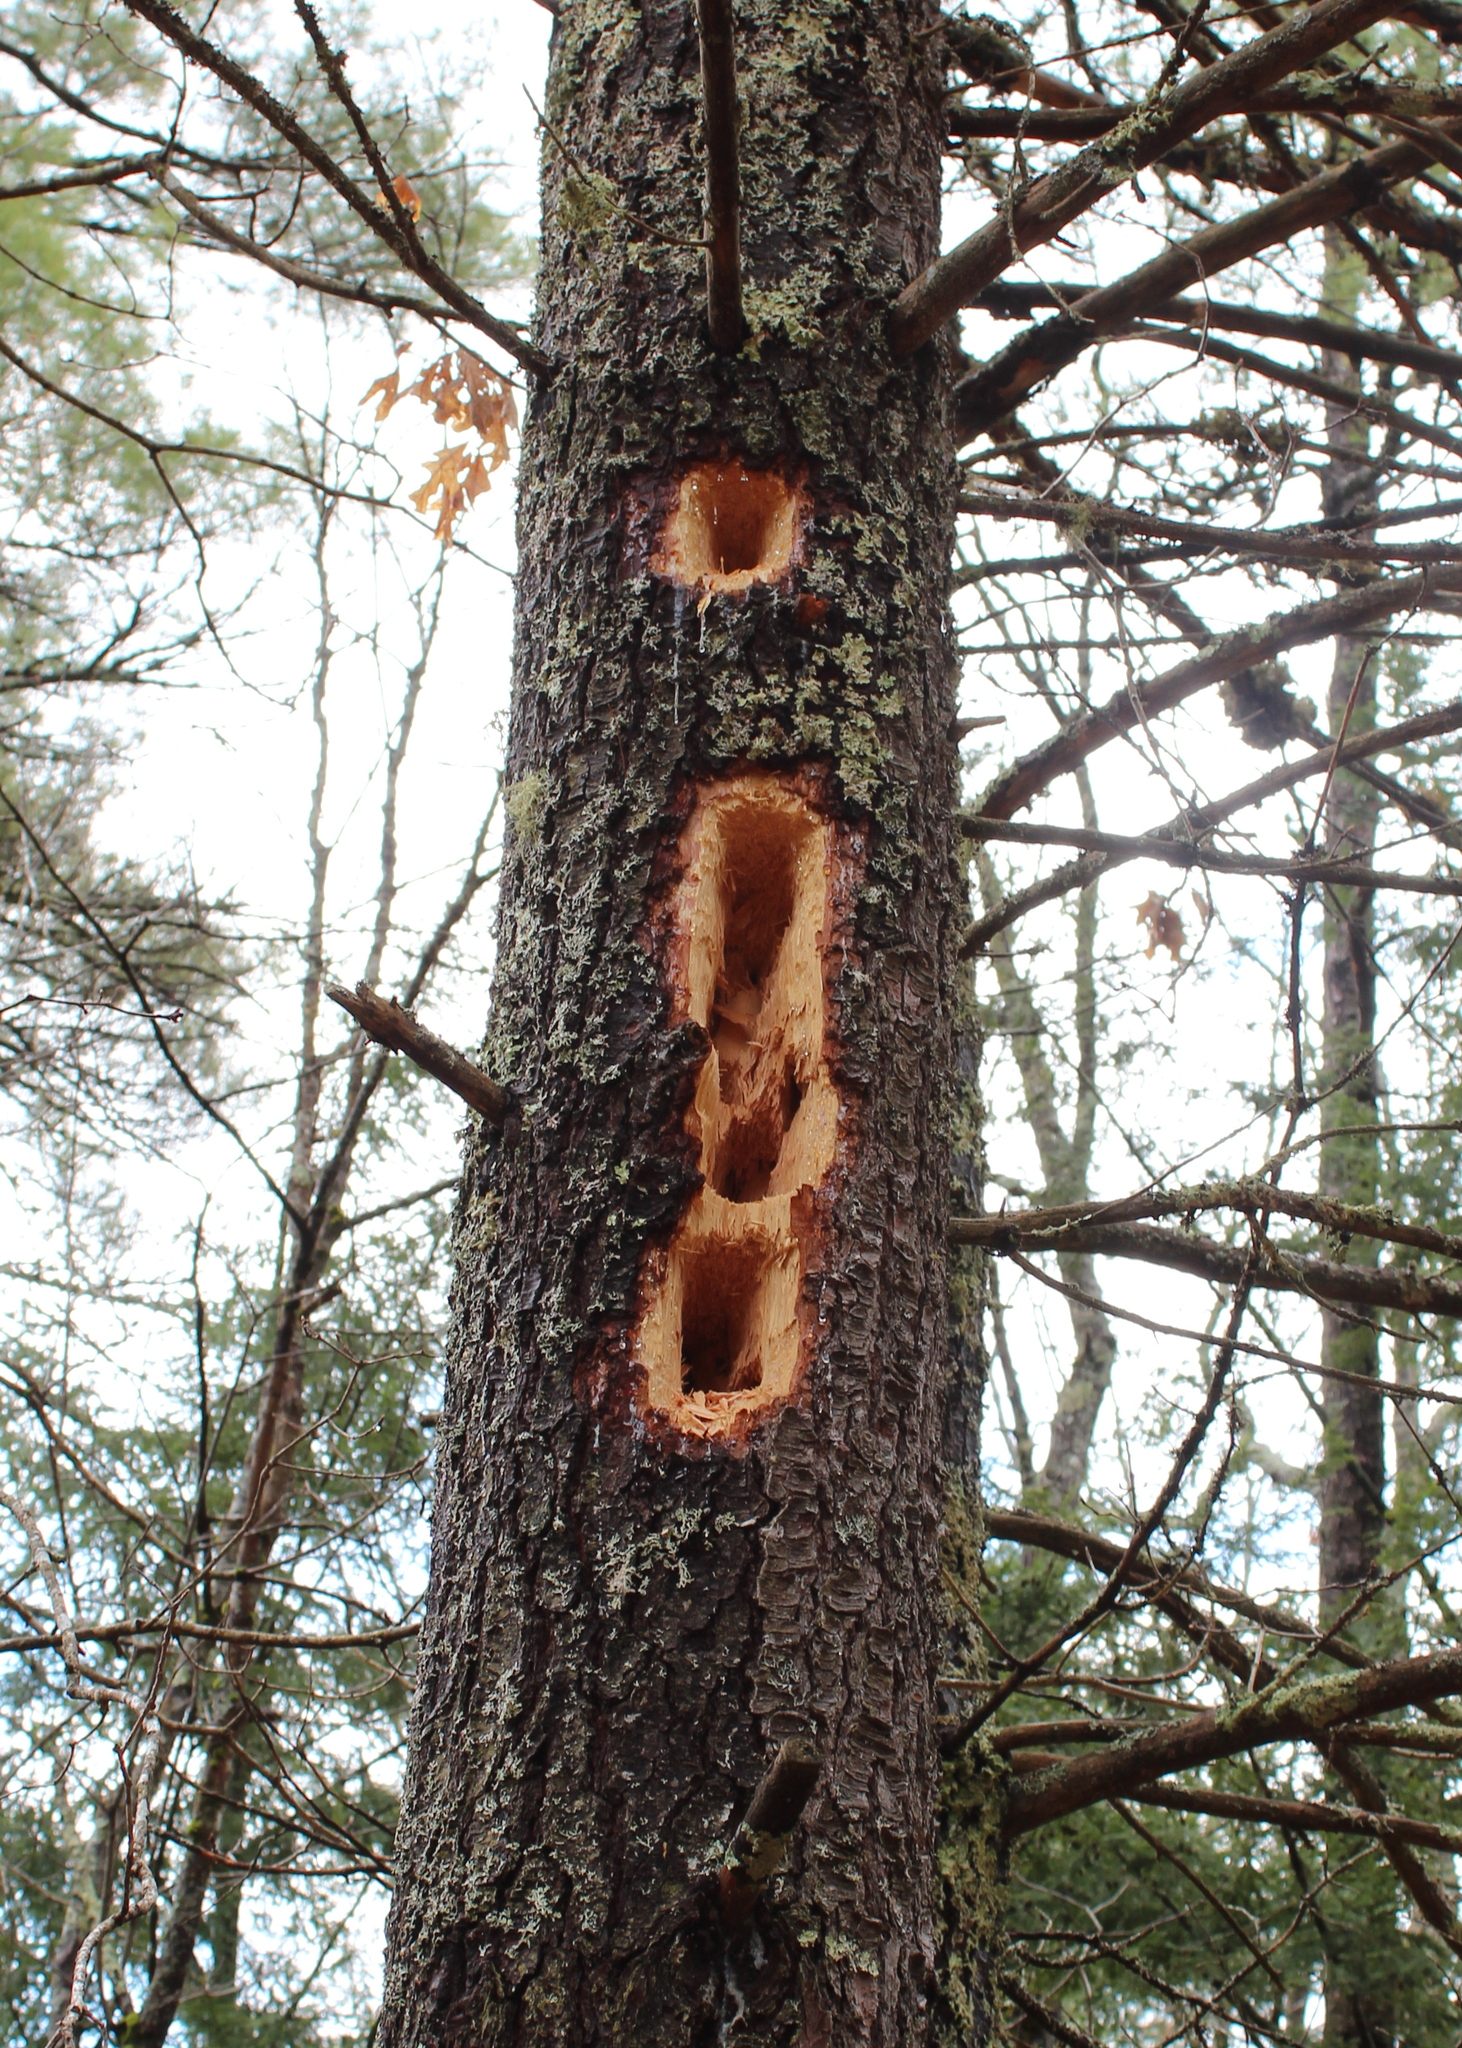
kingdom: Animalia
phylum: Chordata
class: Aves
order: Piciformes
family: Picidae
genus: Dryocopus
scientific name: Dryocopus pileatus
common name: Pileated woodpecker
